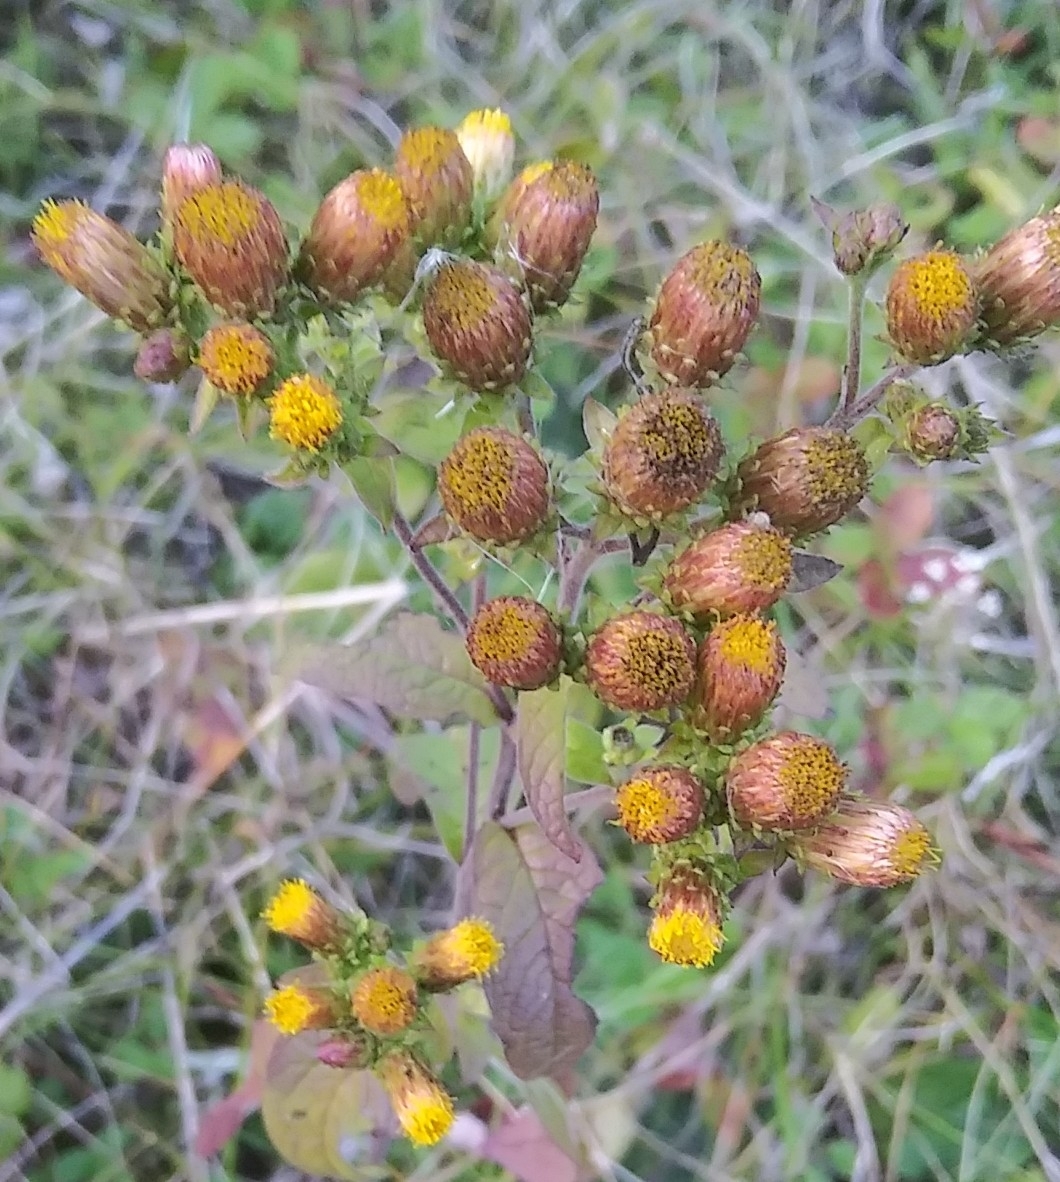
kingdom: Plantae
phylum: Tracheophyta
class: Magnoliopsida
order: Asterales
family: Asteraceae
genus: Pentanema
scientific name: Pentanema squarrosum
